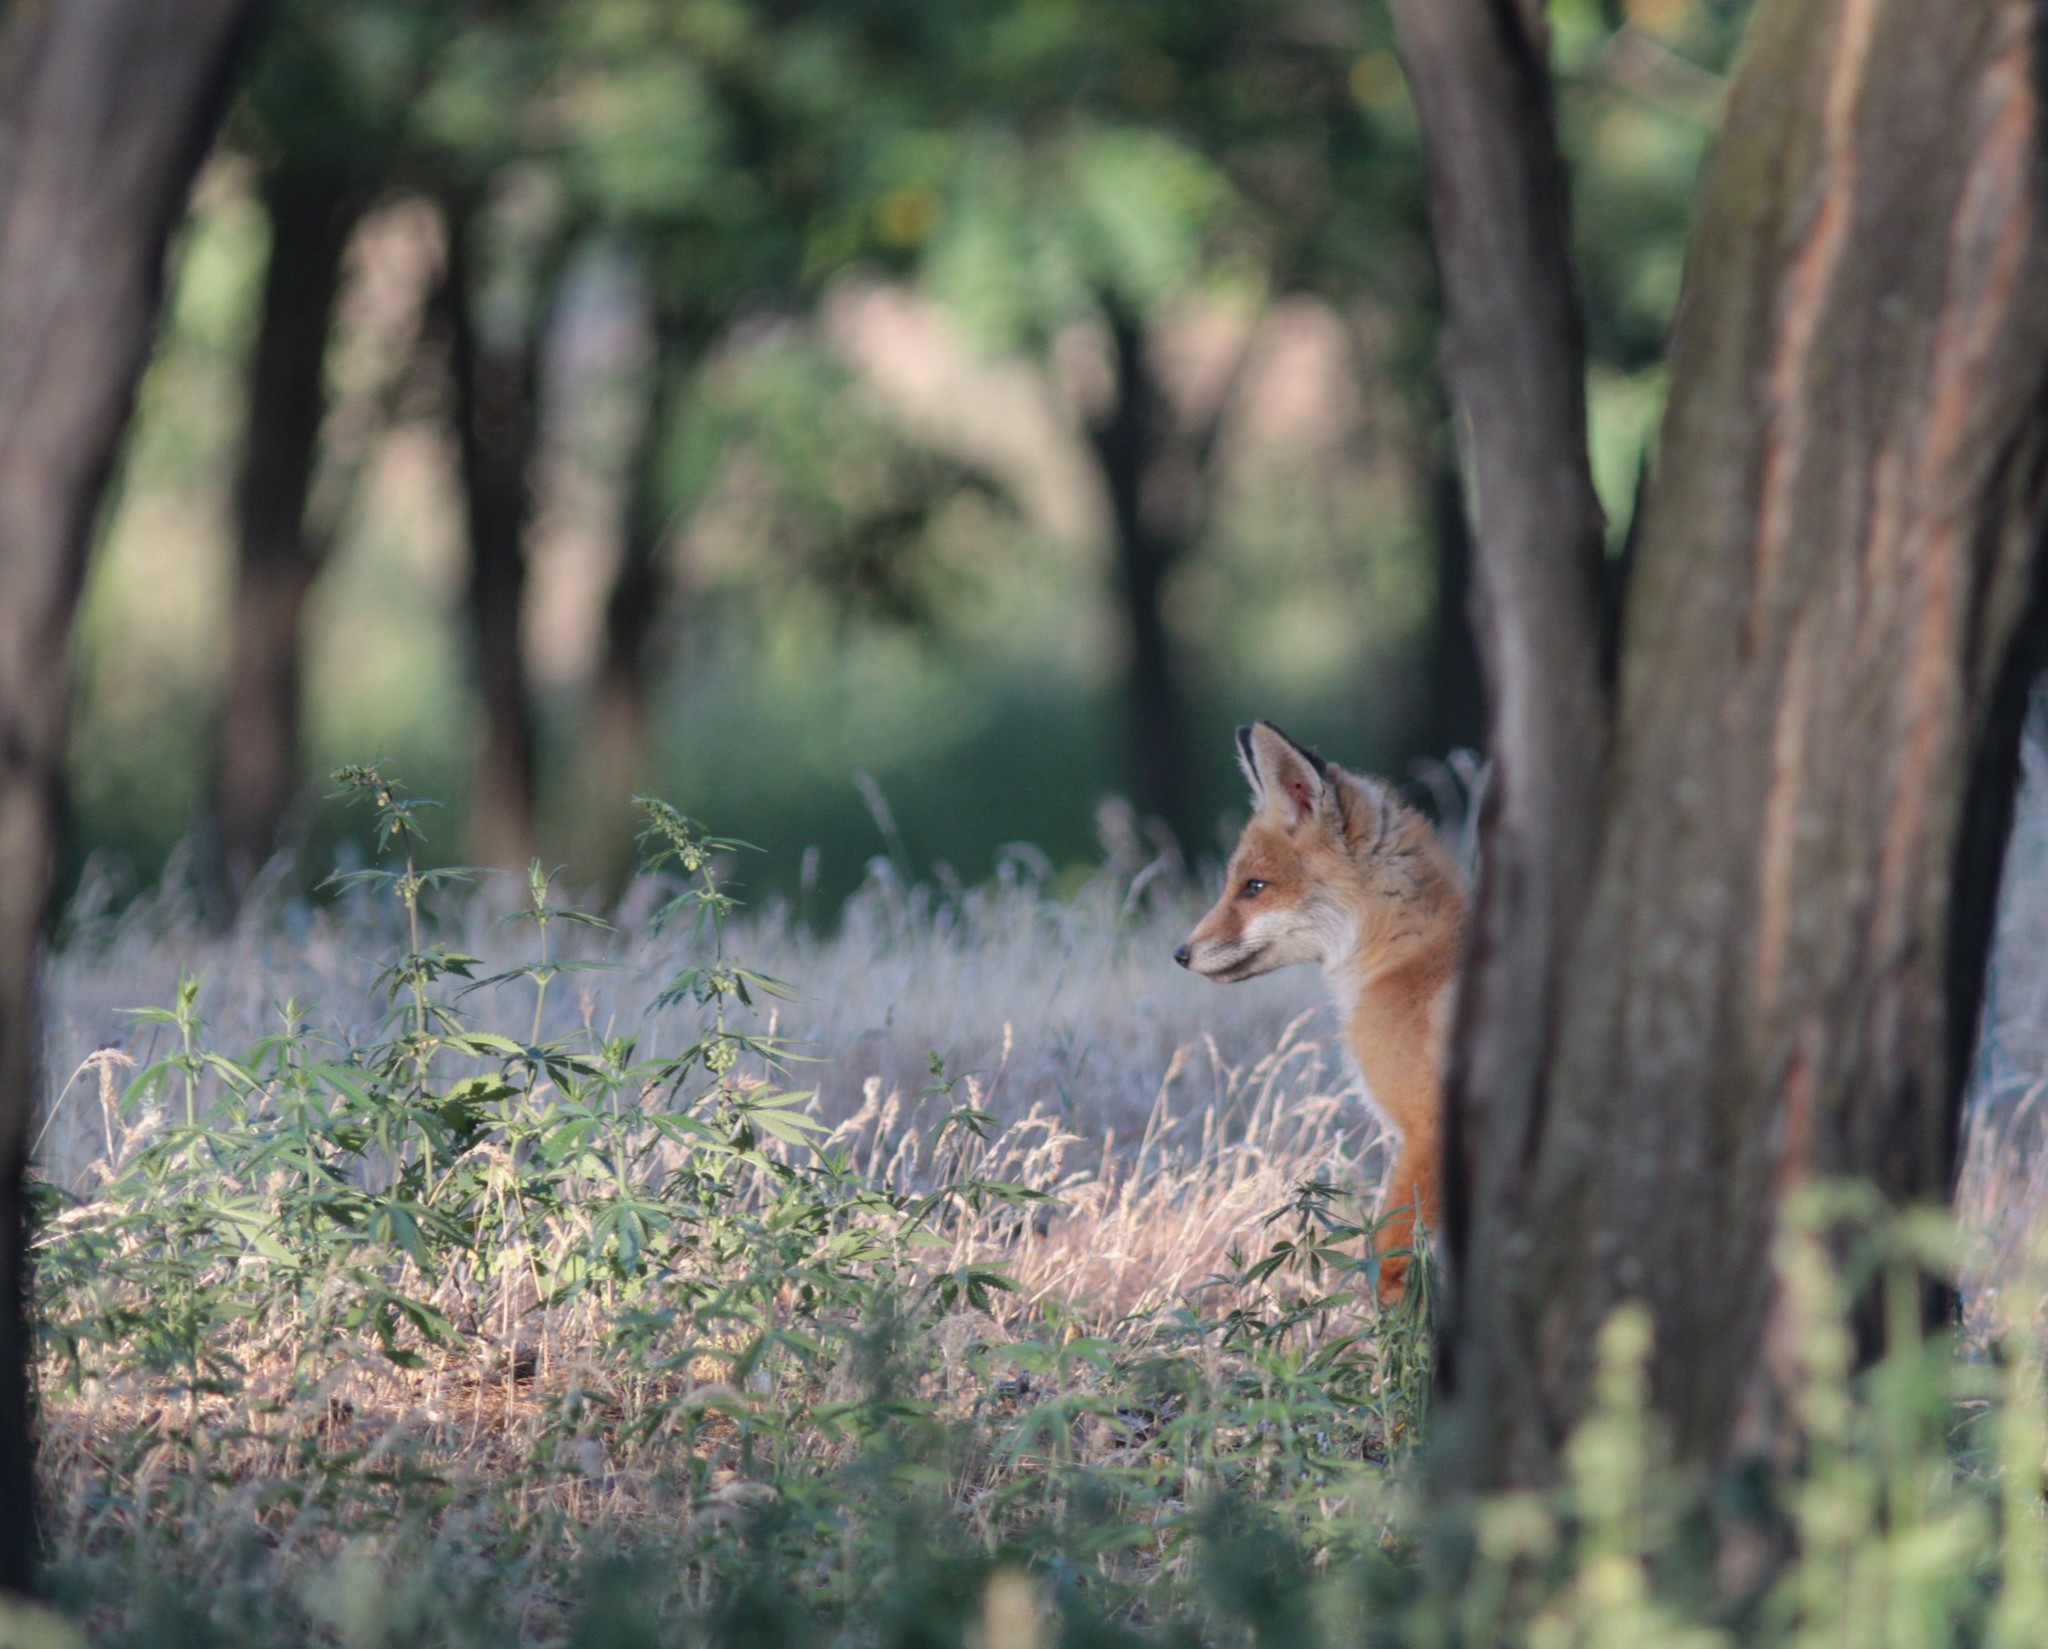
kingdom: Animalia
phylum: Chordata
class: Mammalia
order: Carnivora
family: Canidae
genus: Vulpes
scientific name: Vulpes vulpes
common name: Red fox
